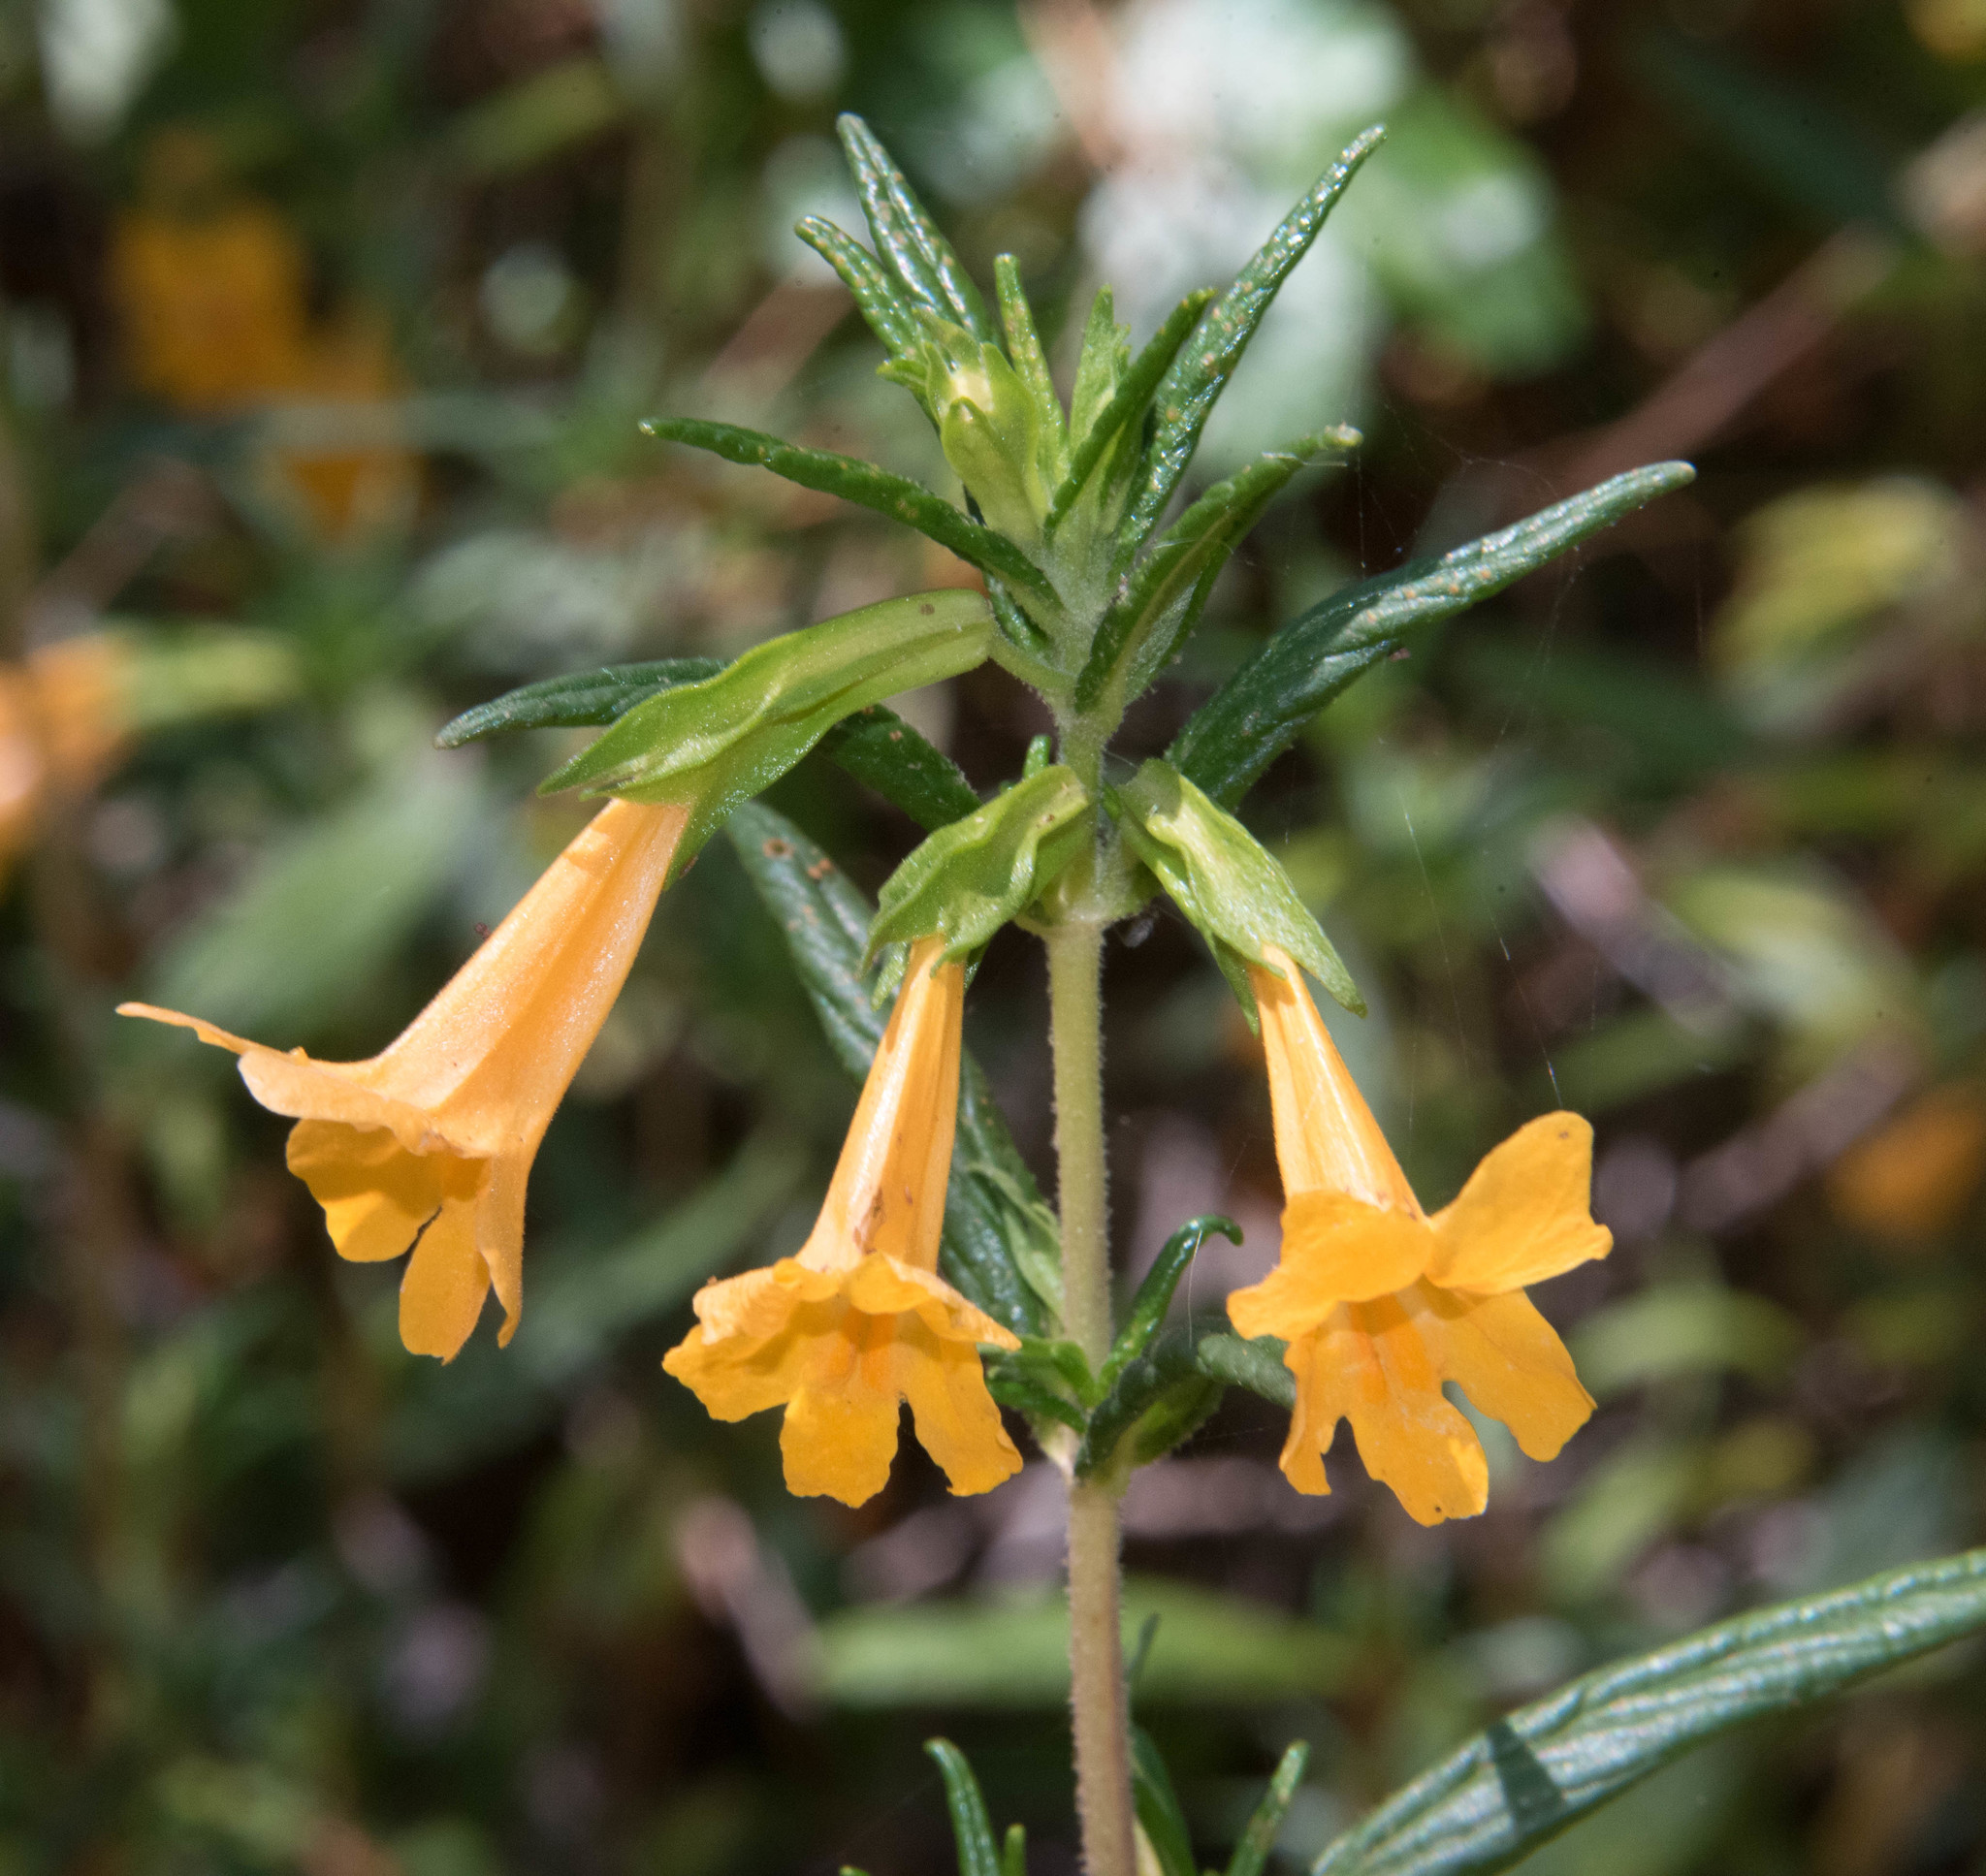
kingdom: Plantae
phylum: Tracheophyta
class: Magnoliopsida
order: Lamiales
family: Phrymaceae
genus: Diplacus
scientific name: Diplacus aurantiacus
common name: Bush monkey-flower
